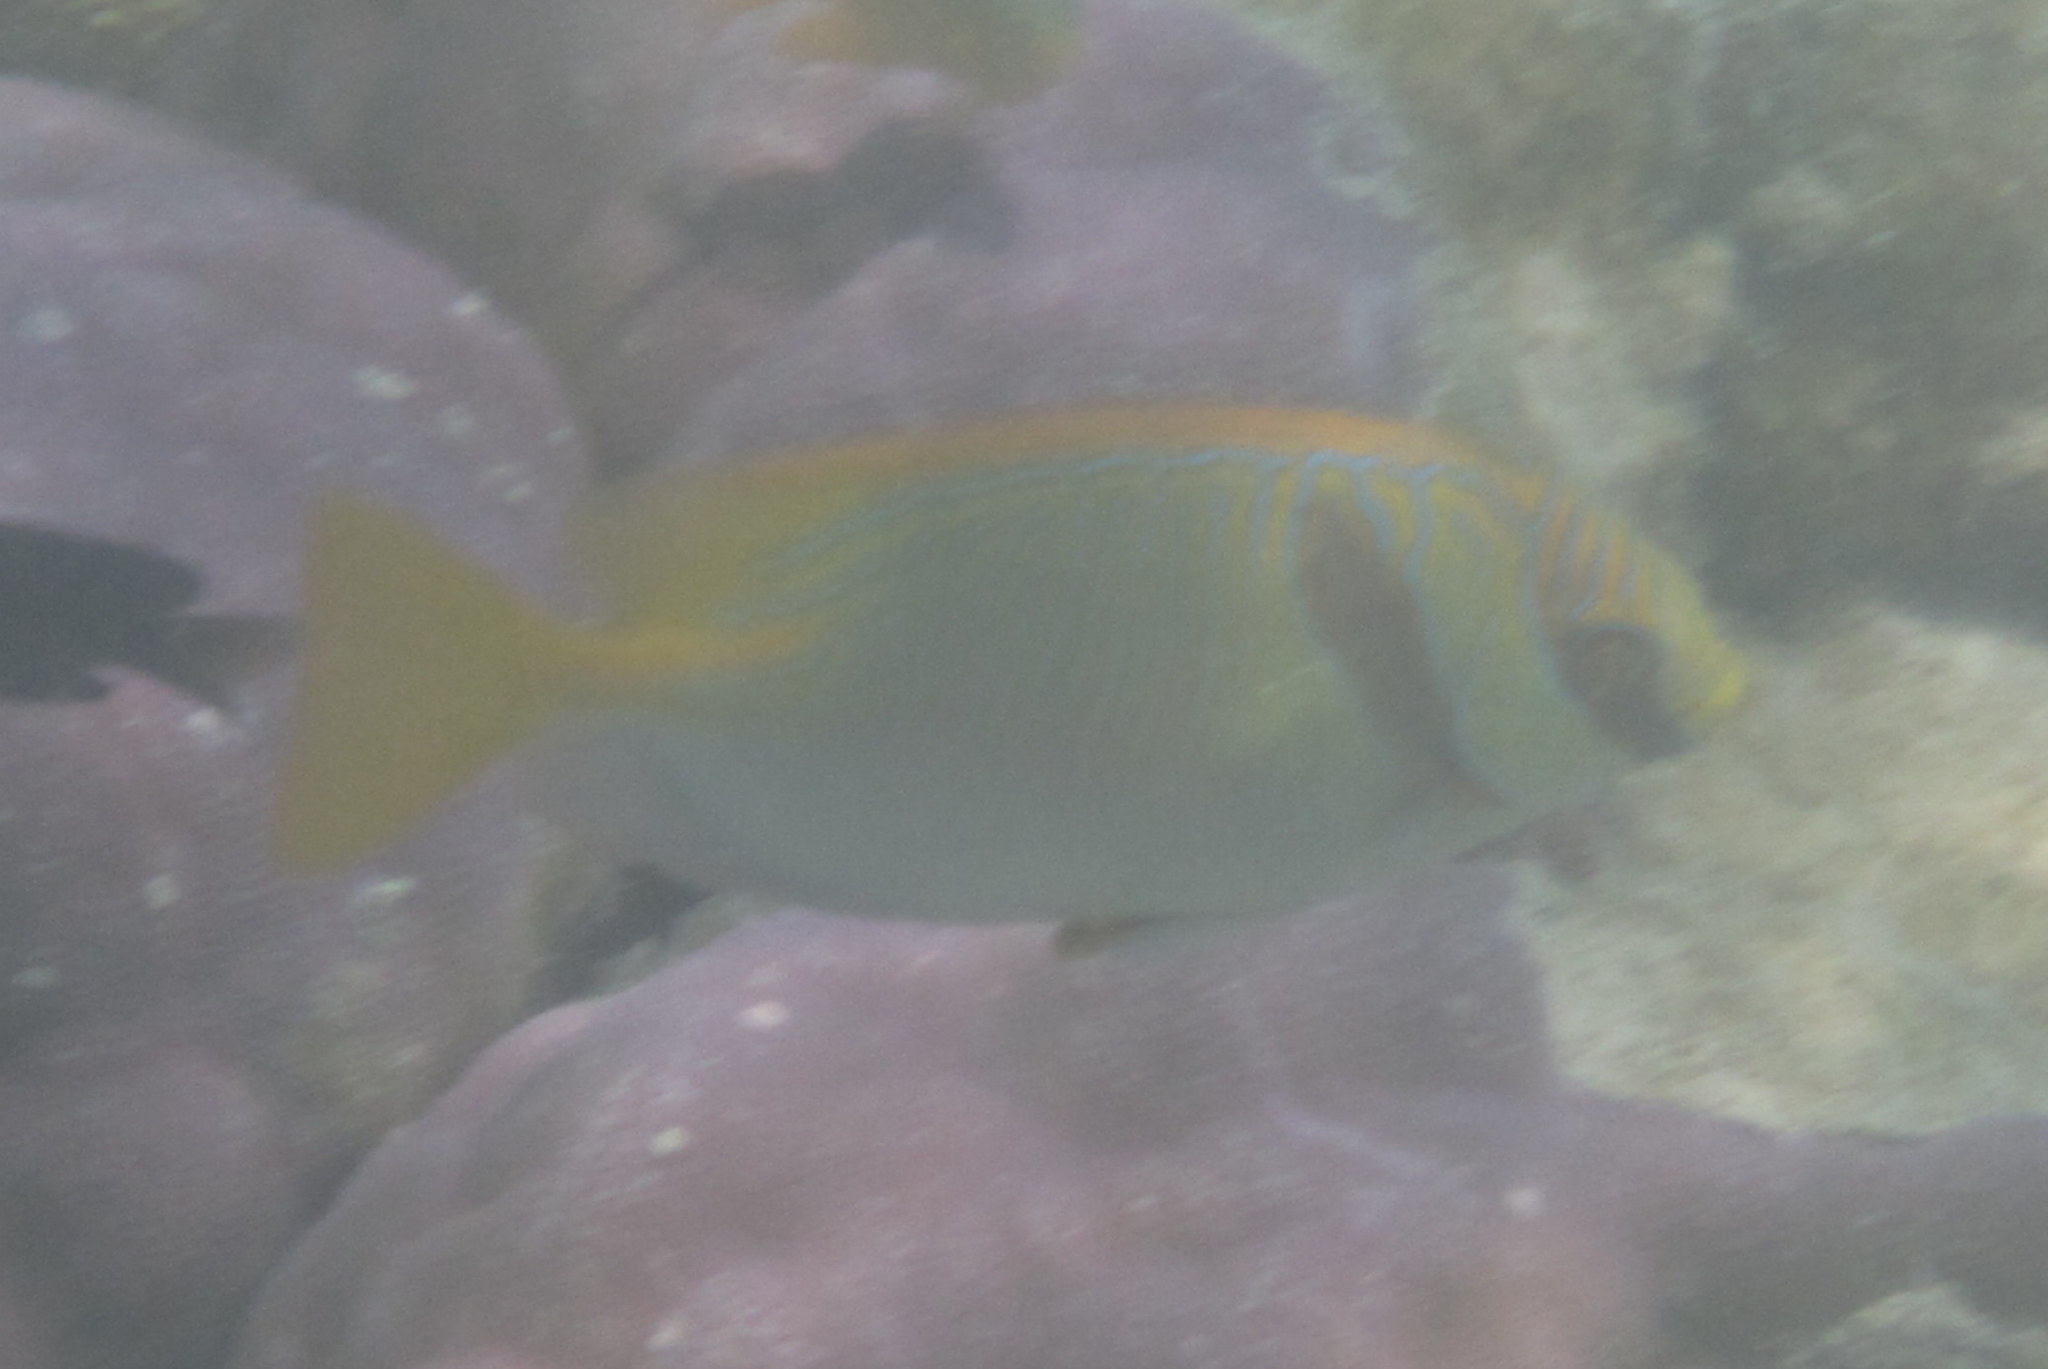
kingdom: Animalia
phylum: Chordata
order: Perciformes
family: Siganidae
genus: Siganus
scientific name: Siganus doliatus
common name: Barred spinefoot
